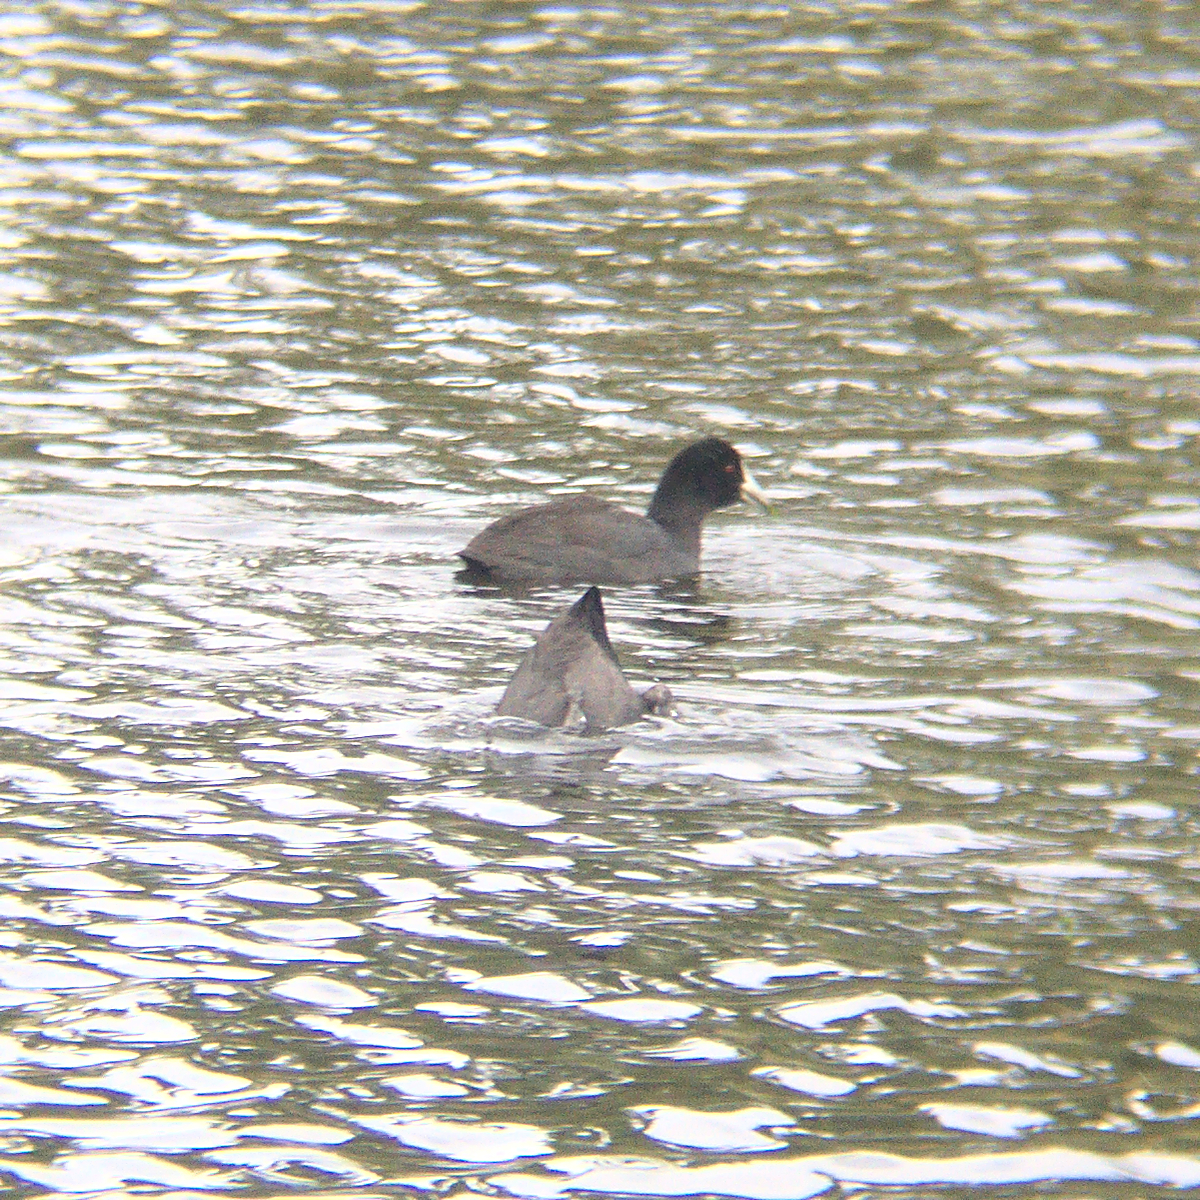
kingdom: Animalia
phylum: Chordata
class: Aves
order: Gruiformes
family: Rallidae
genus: Fulica
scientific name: Fulica atra
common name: Eurasian coot
